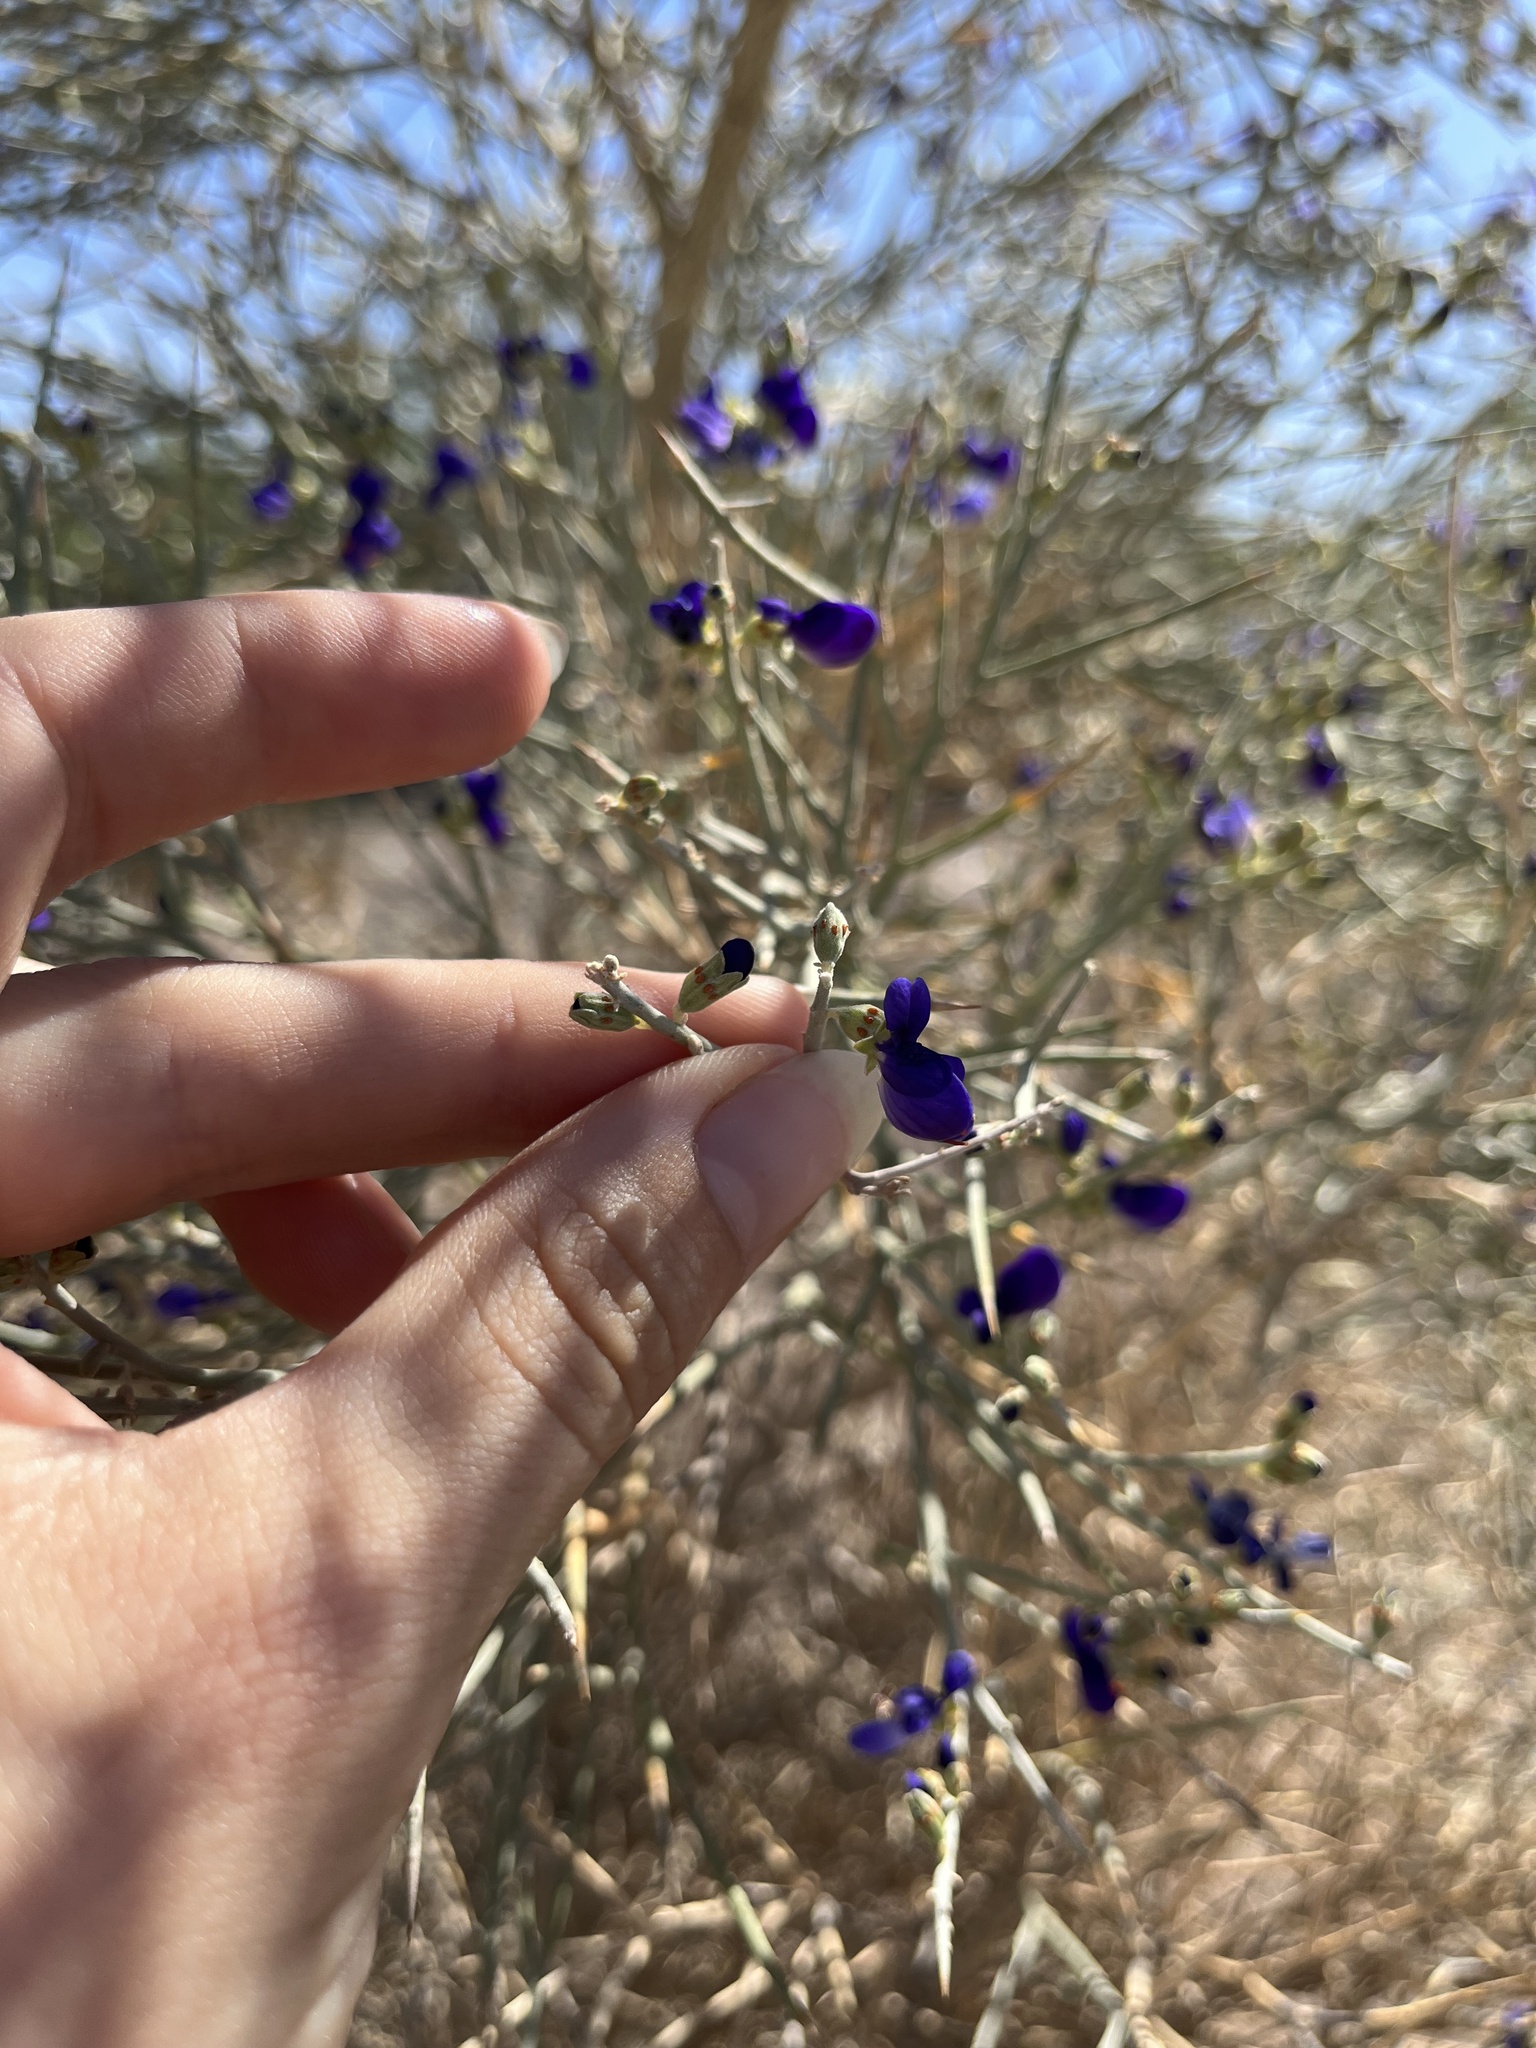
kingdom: Plantae
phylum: Tracheophyta
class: Magnoliopsida
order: Fabales
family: Fabaceae
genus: Psorothamnus
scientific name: Psorothamnus spinosus
